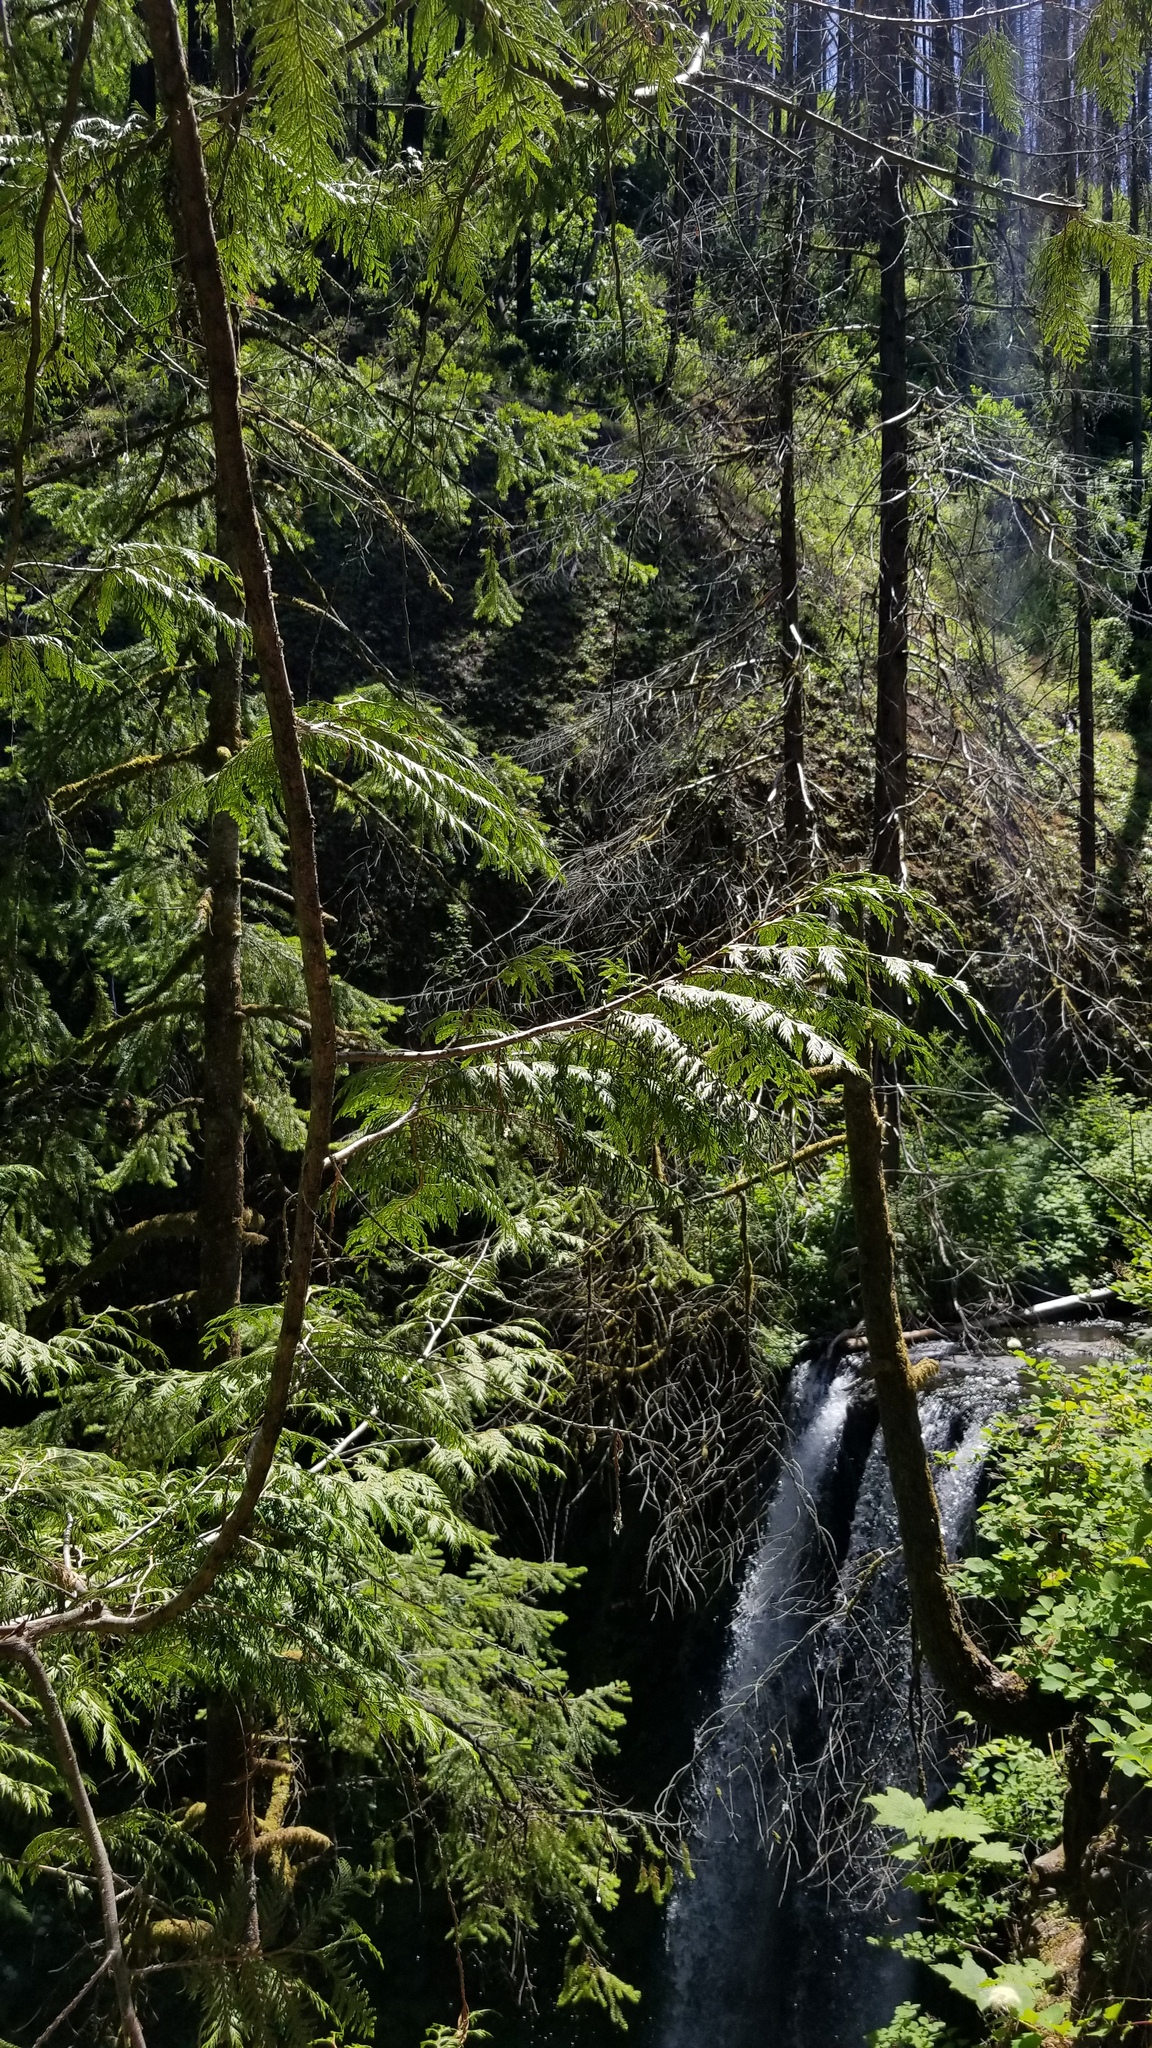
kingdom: Plantae
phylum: Tracheophyta
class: Pinopsida
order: Pinales
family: Cupressaceae
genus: Thuja
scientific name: Thuja plicata
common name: Western red-cedar
